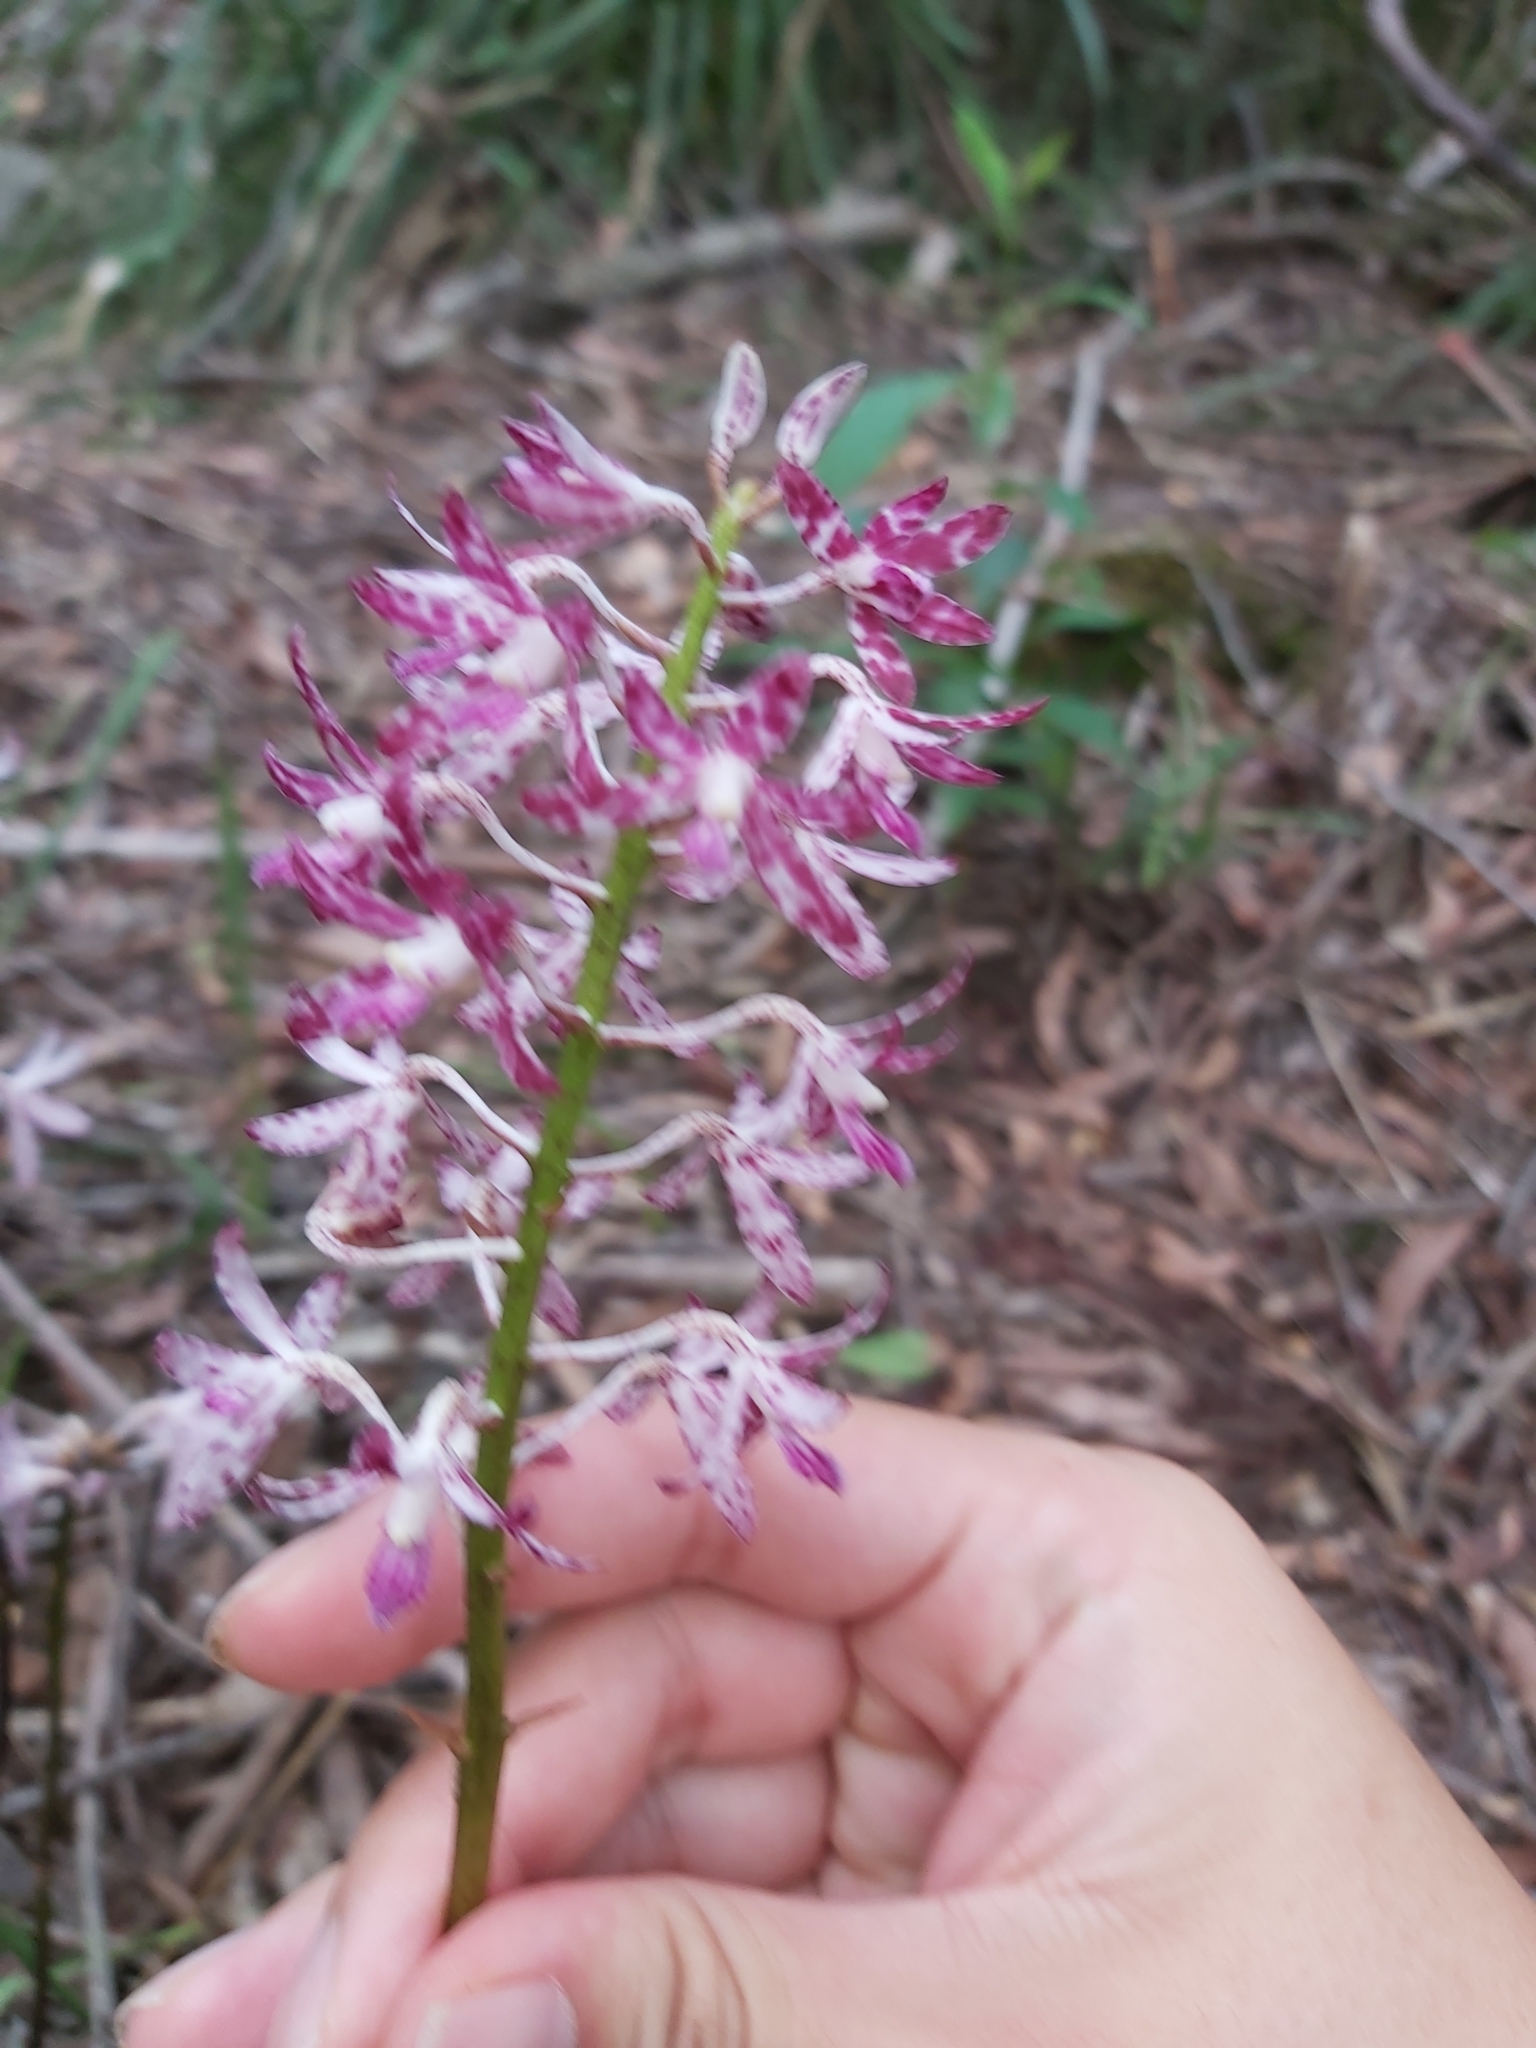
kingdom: Plantae
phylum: Tracheophyta
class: Liliopsida
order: Asparagales
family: Orchidaceae
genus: Dipodium
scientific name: Dipodium variegatum
